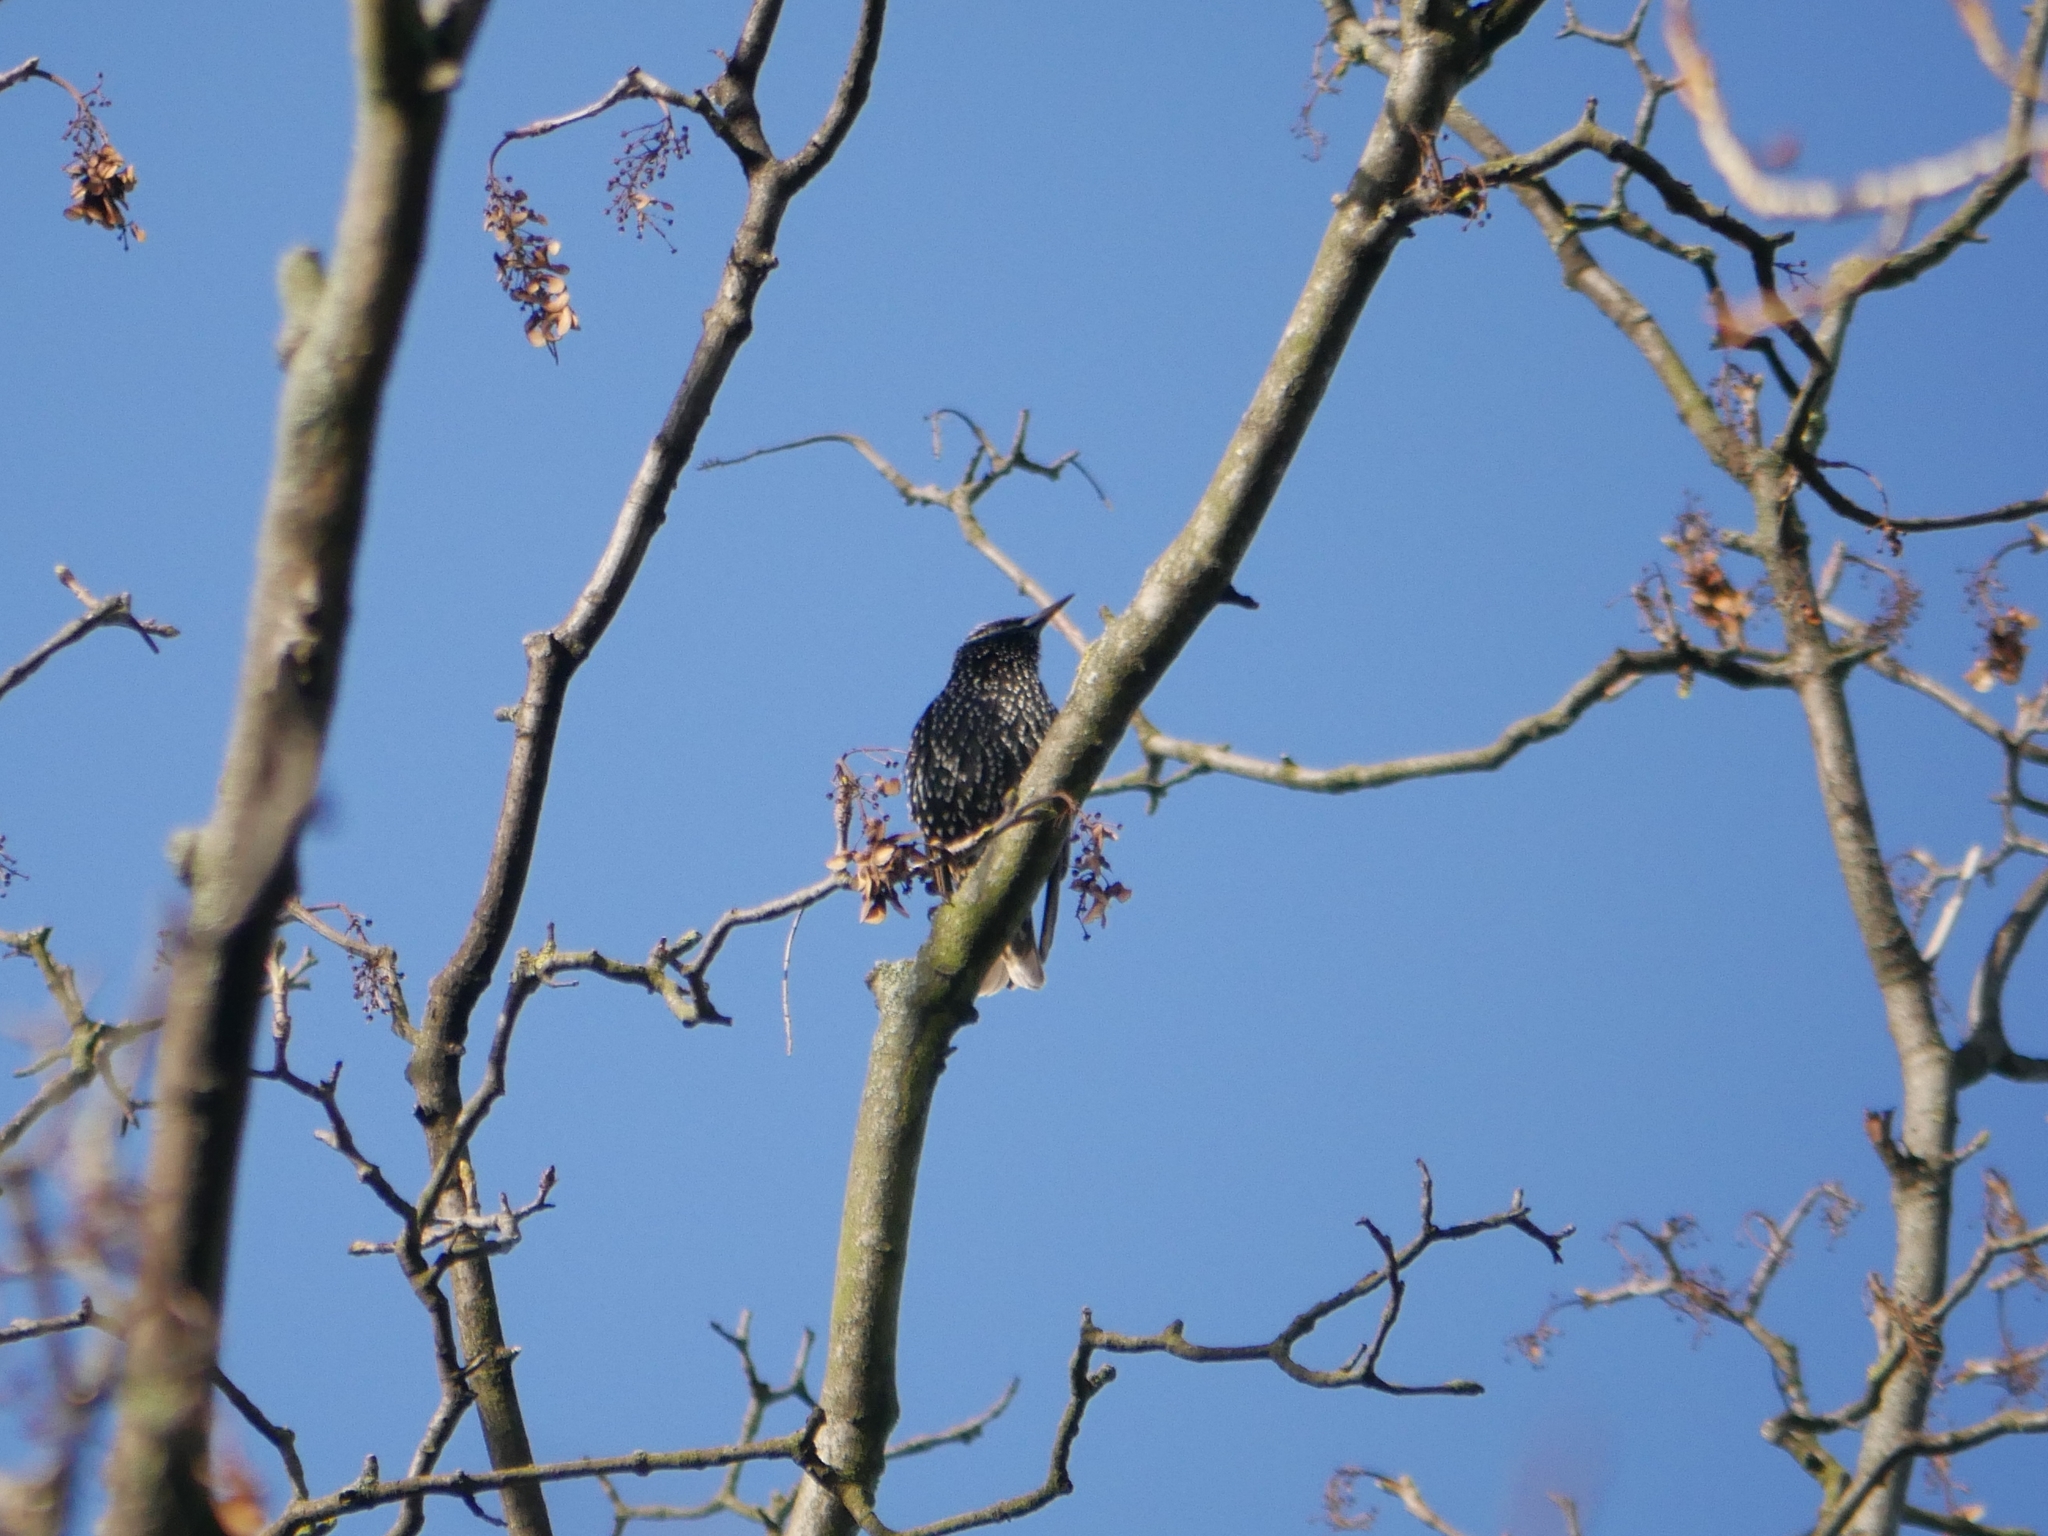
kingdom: Animalia
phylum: Chordata
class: Aves
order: Passeriformes
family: Sturnidae
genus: Sturnus
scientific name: Sturnus vulgaris
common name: Common starling
